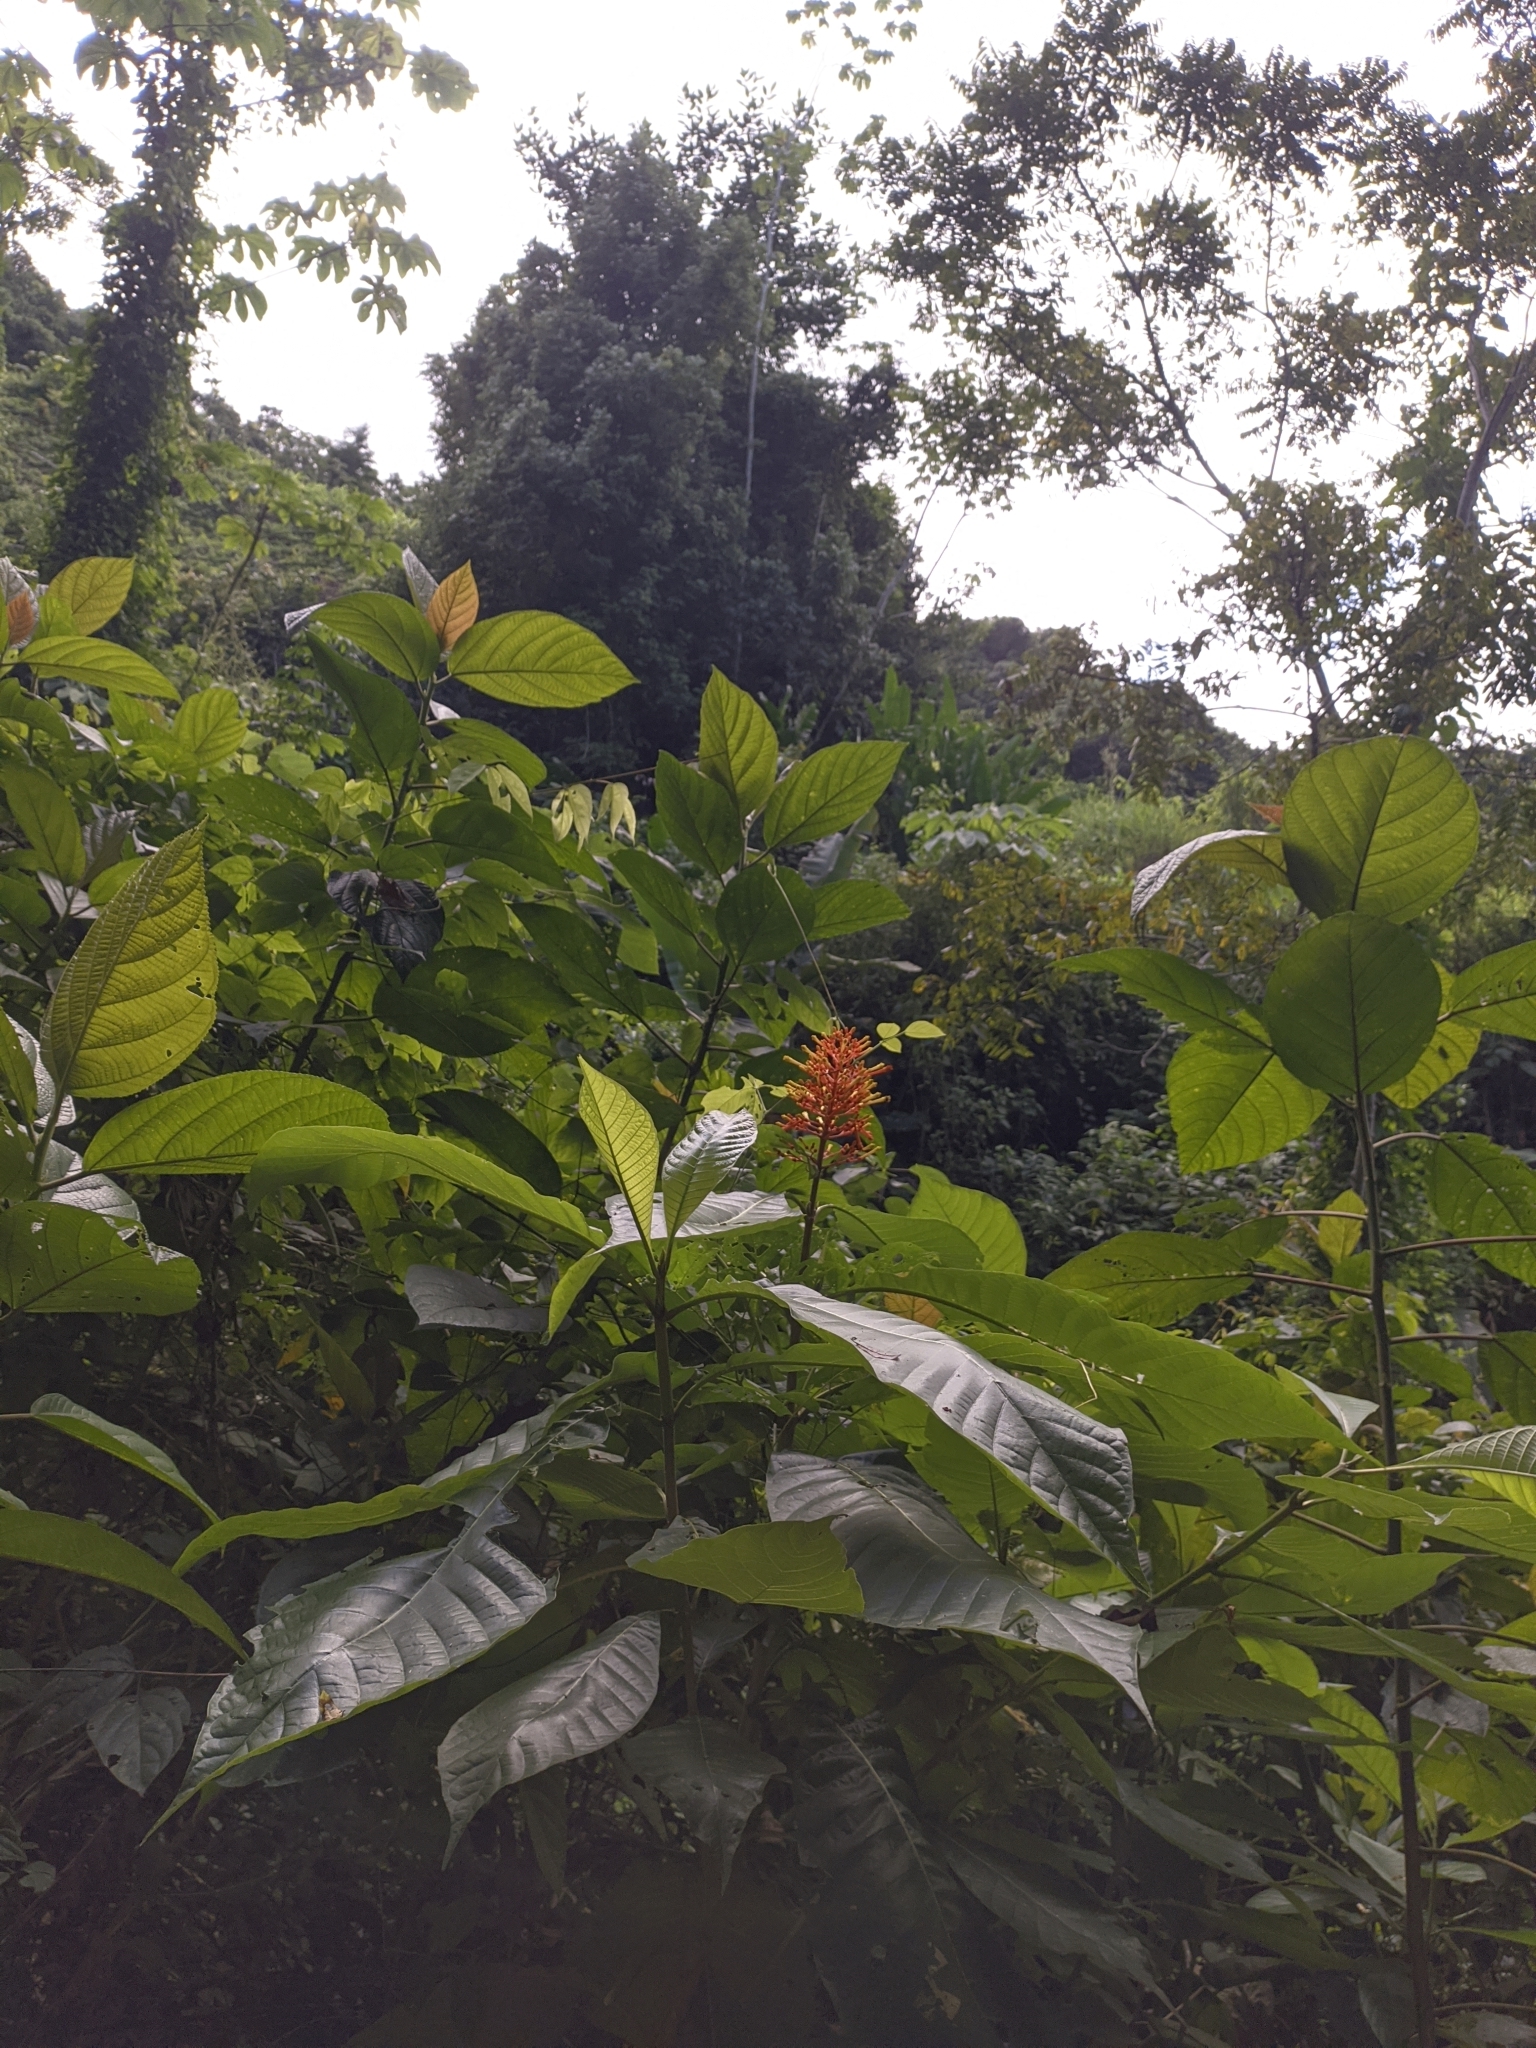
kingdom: Plantae
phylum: Tracheophyta
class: Magnoliopsida
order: Gentianales
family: Rubiaceae
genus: Isertia
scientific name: Isertia haenkeana
